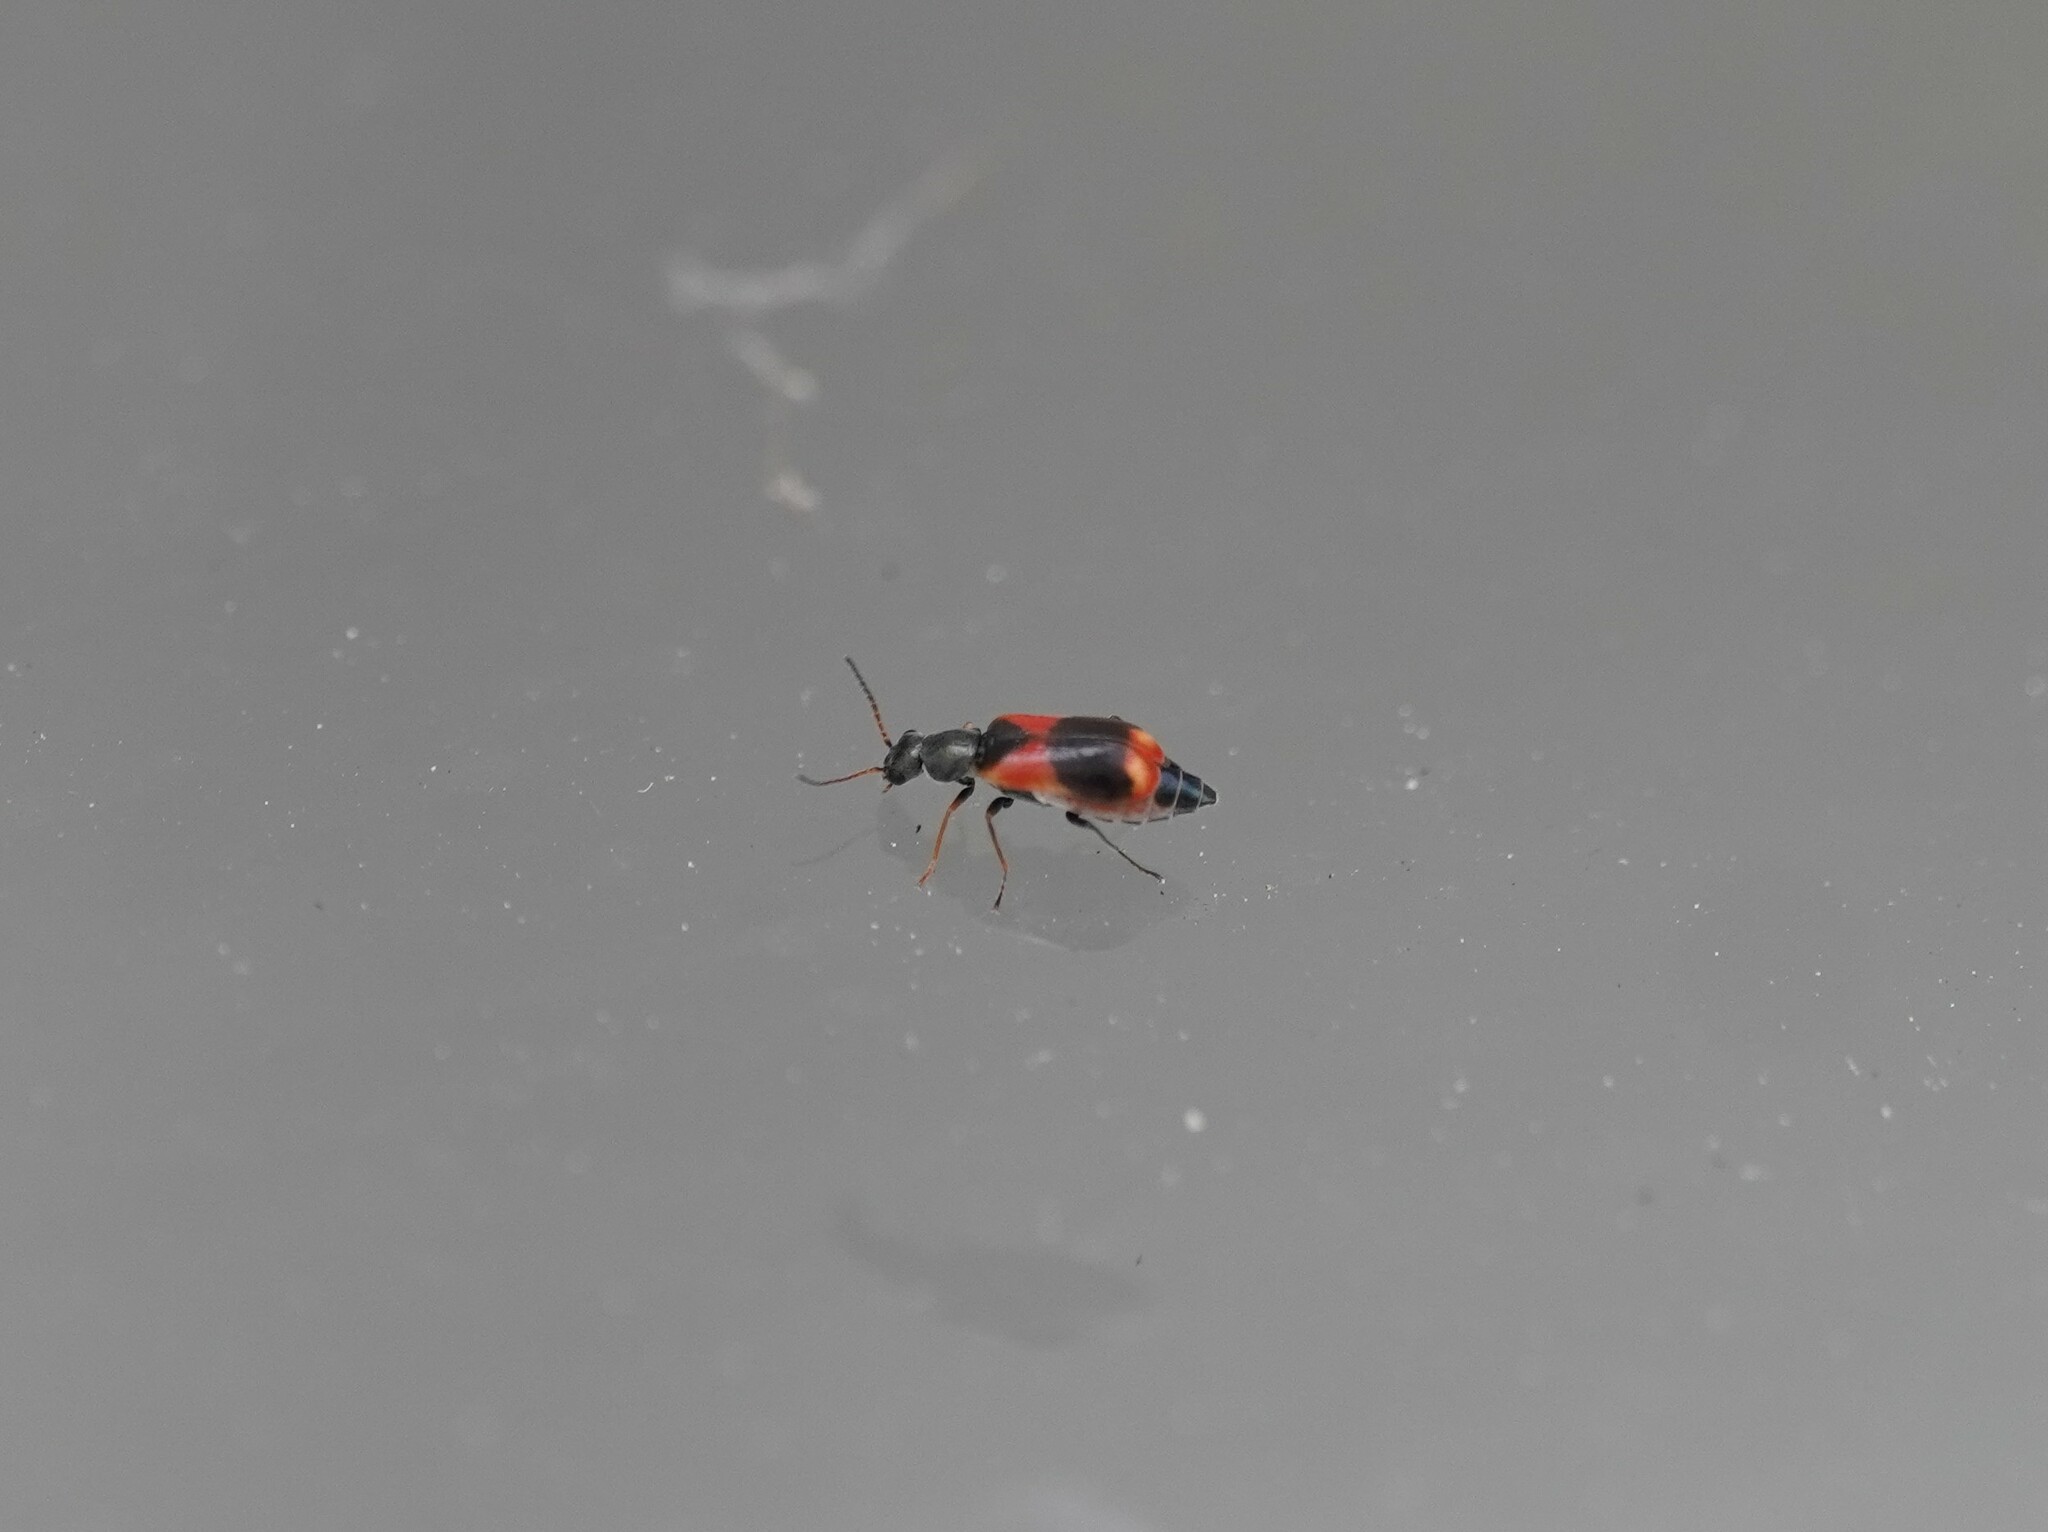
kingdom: Animalia
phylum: Arthropoda
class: Insecta
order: Coleoptera
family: Melyridae
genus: Anthocomus
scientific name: Anthocomus equestris
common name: Black-banded soft-winged flower beetle
